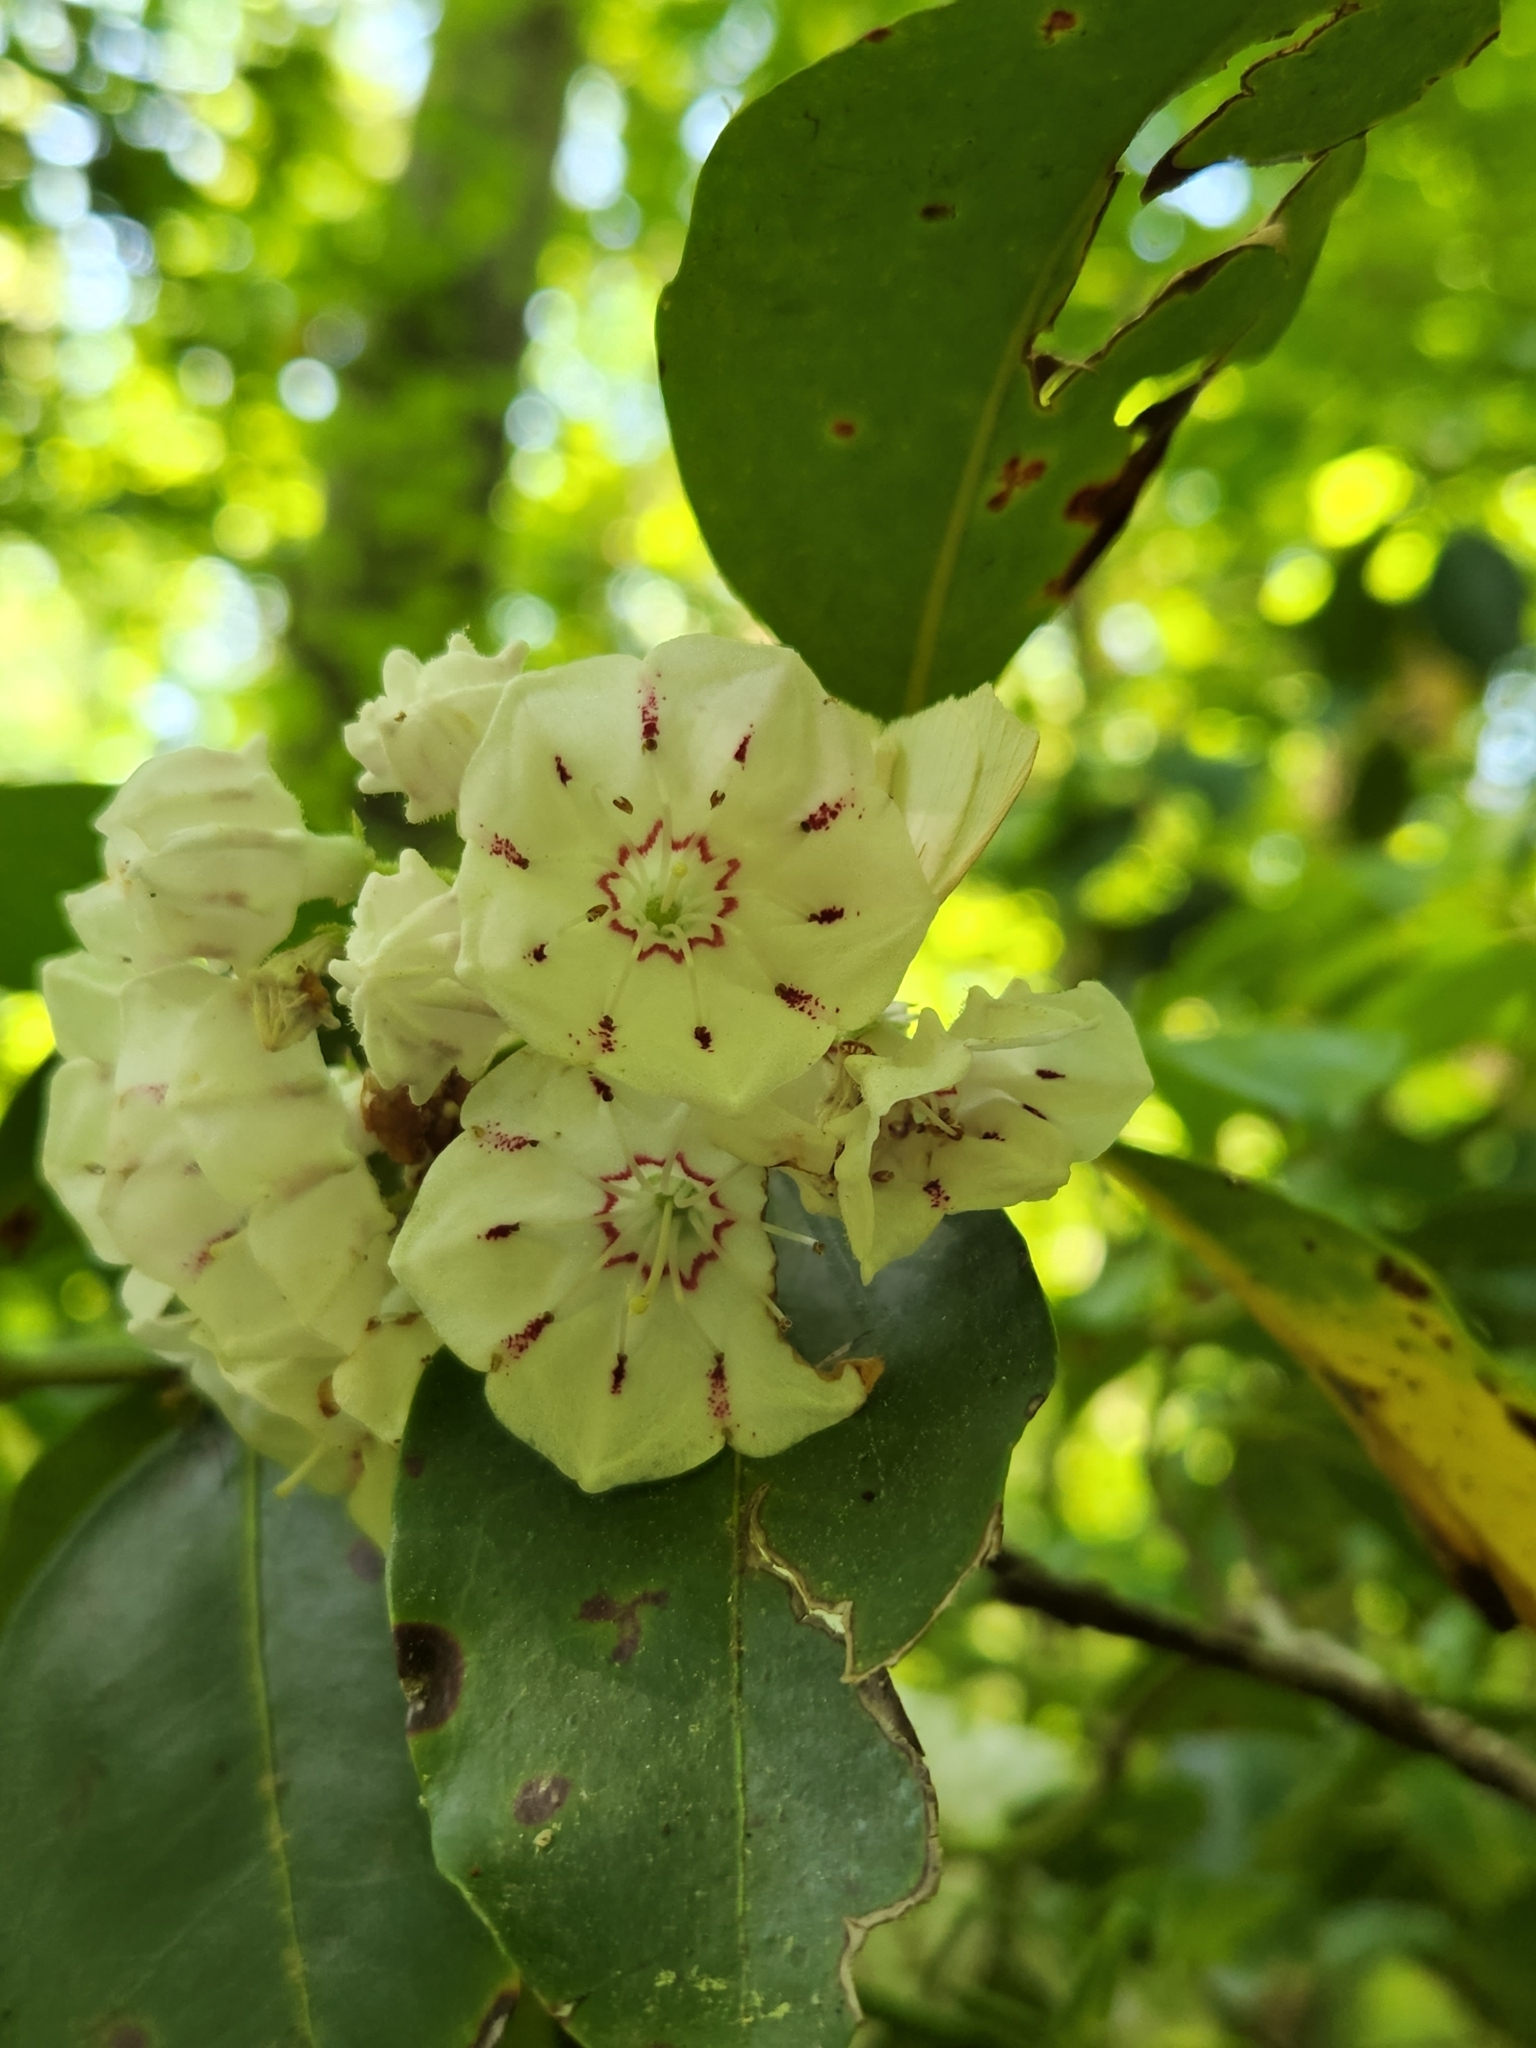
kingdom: Plantae
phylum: Tracheophyta
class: Magnoliopsida
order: Ericales
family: Ericaceae
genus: Kalmia
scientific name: Kalmia latifolia
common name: Mountain-laurel
